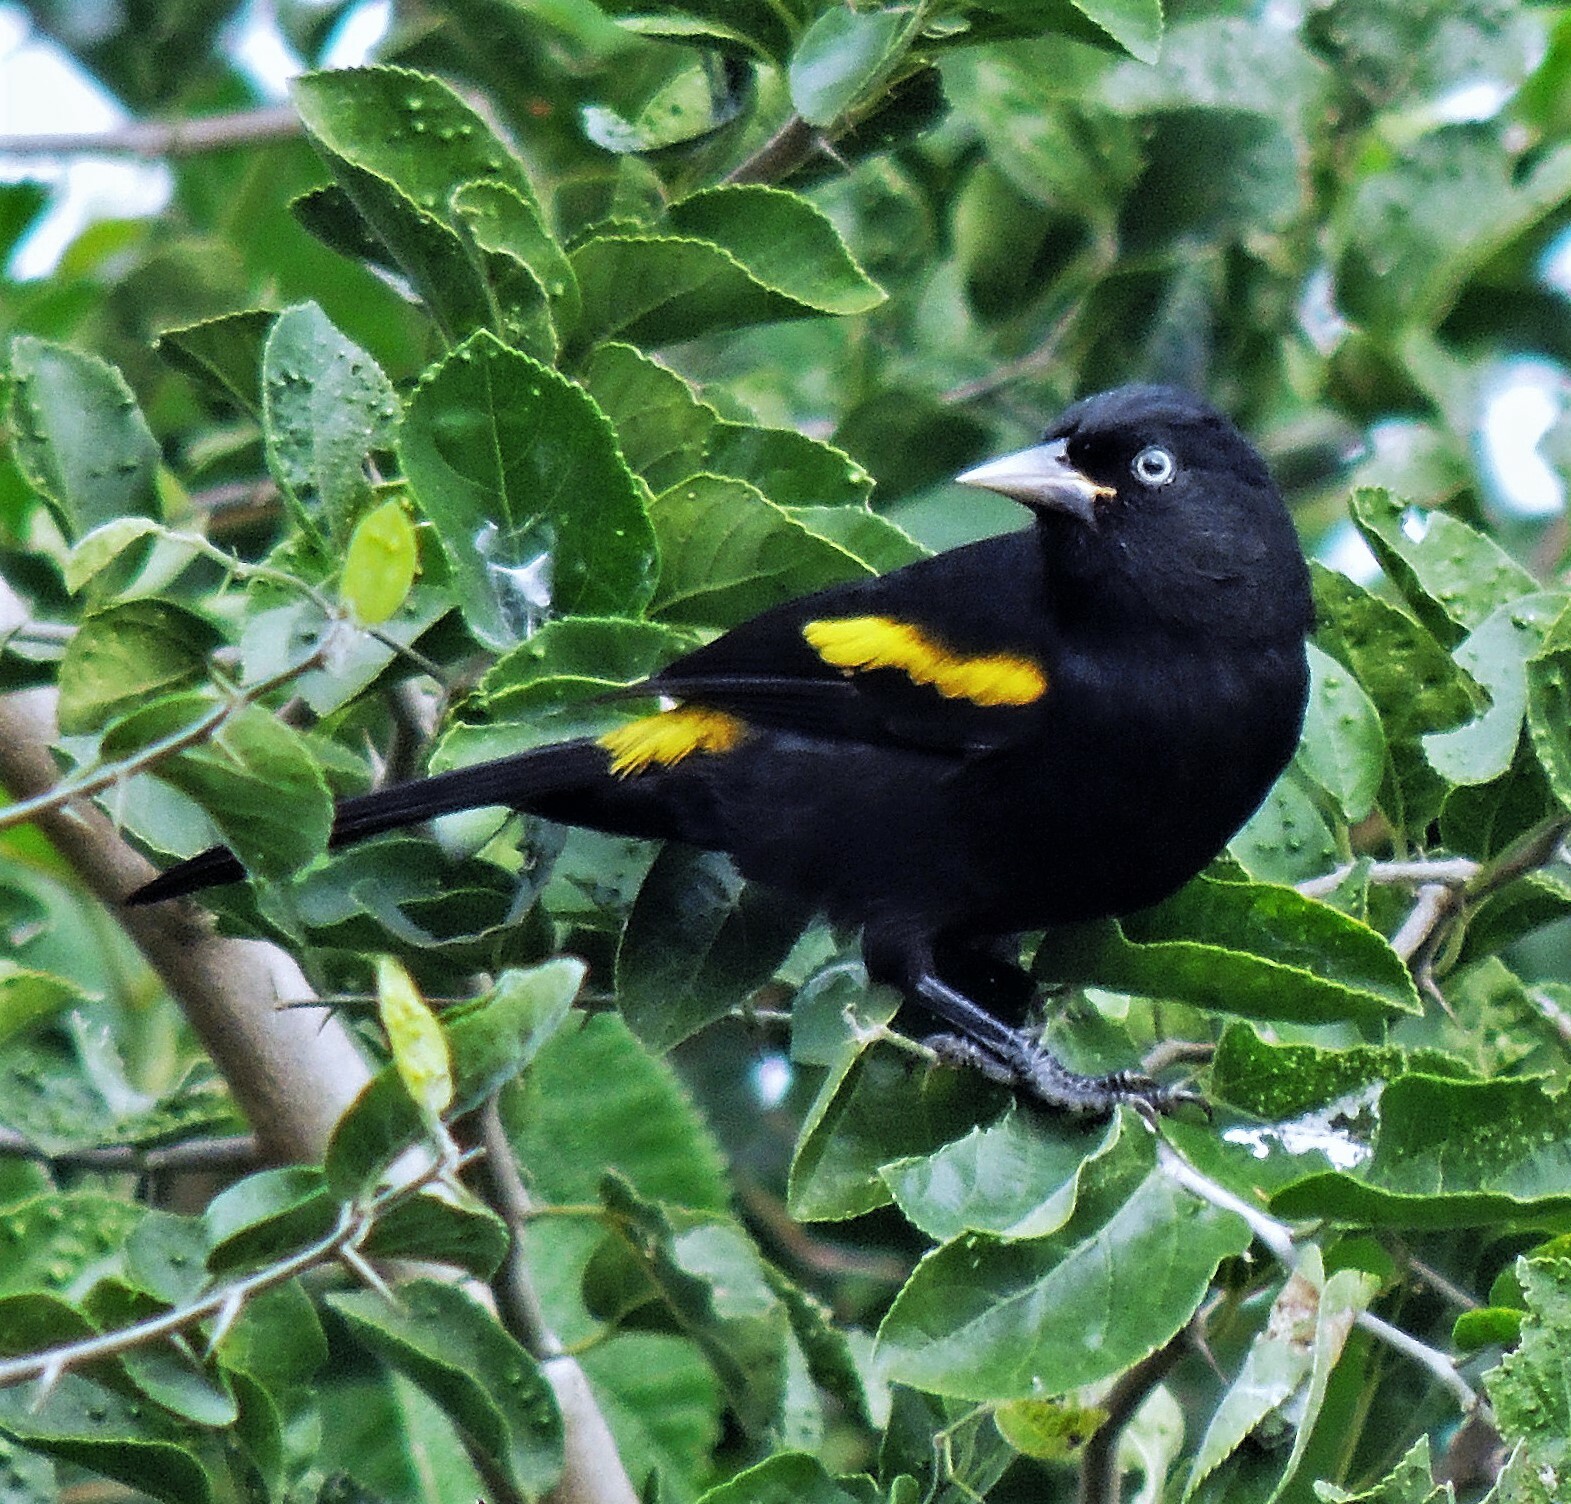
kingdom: Animalia
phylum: Chordata
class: Aves
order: Passeriformes
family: Icteridae
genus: Cacicus
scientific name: Cacicus chrysopterus
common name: Golden-winged cacique
